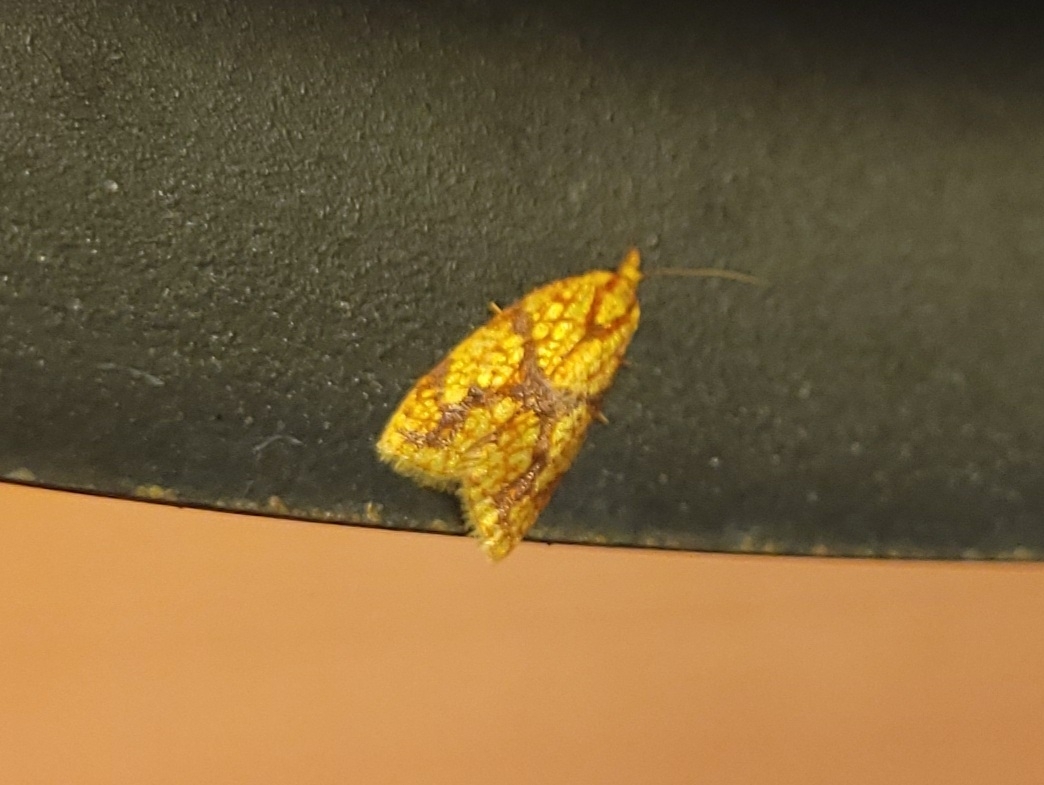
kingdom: Animalia
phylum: Arthropoda
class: Insecta
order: Lepidoptera
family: Tortricidae
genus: Sparganothis
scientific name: Sparganothis sulfureana
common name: Sparganothis fruitworm moth
